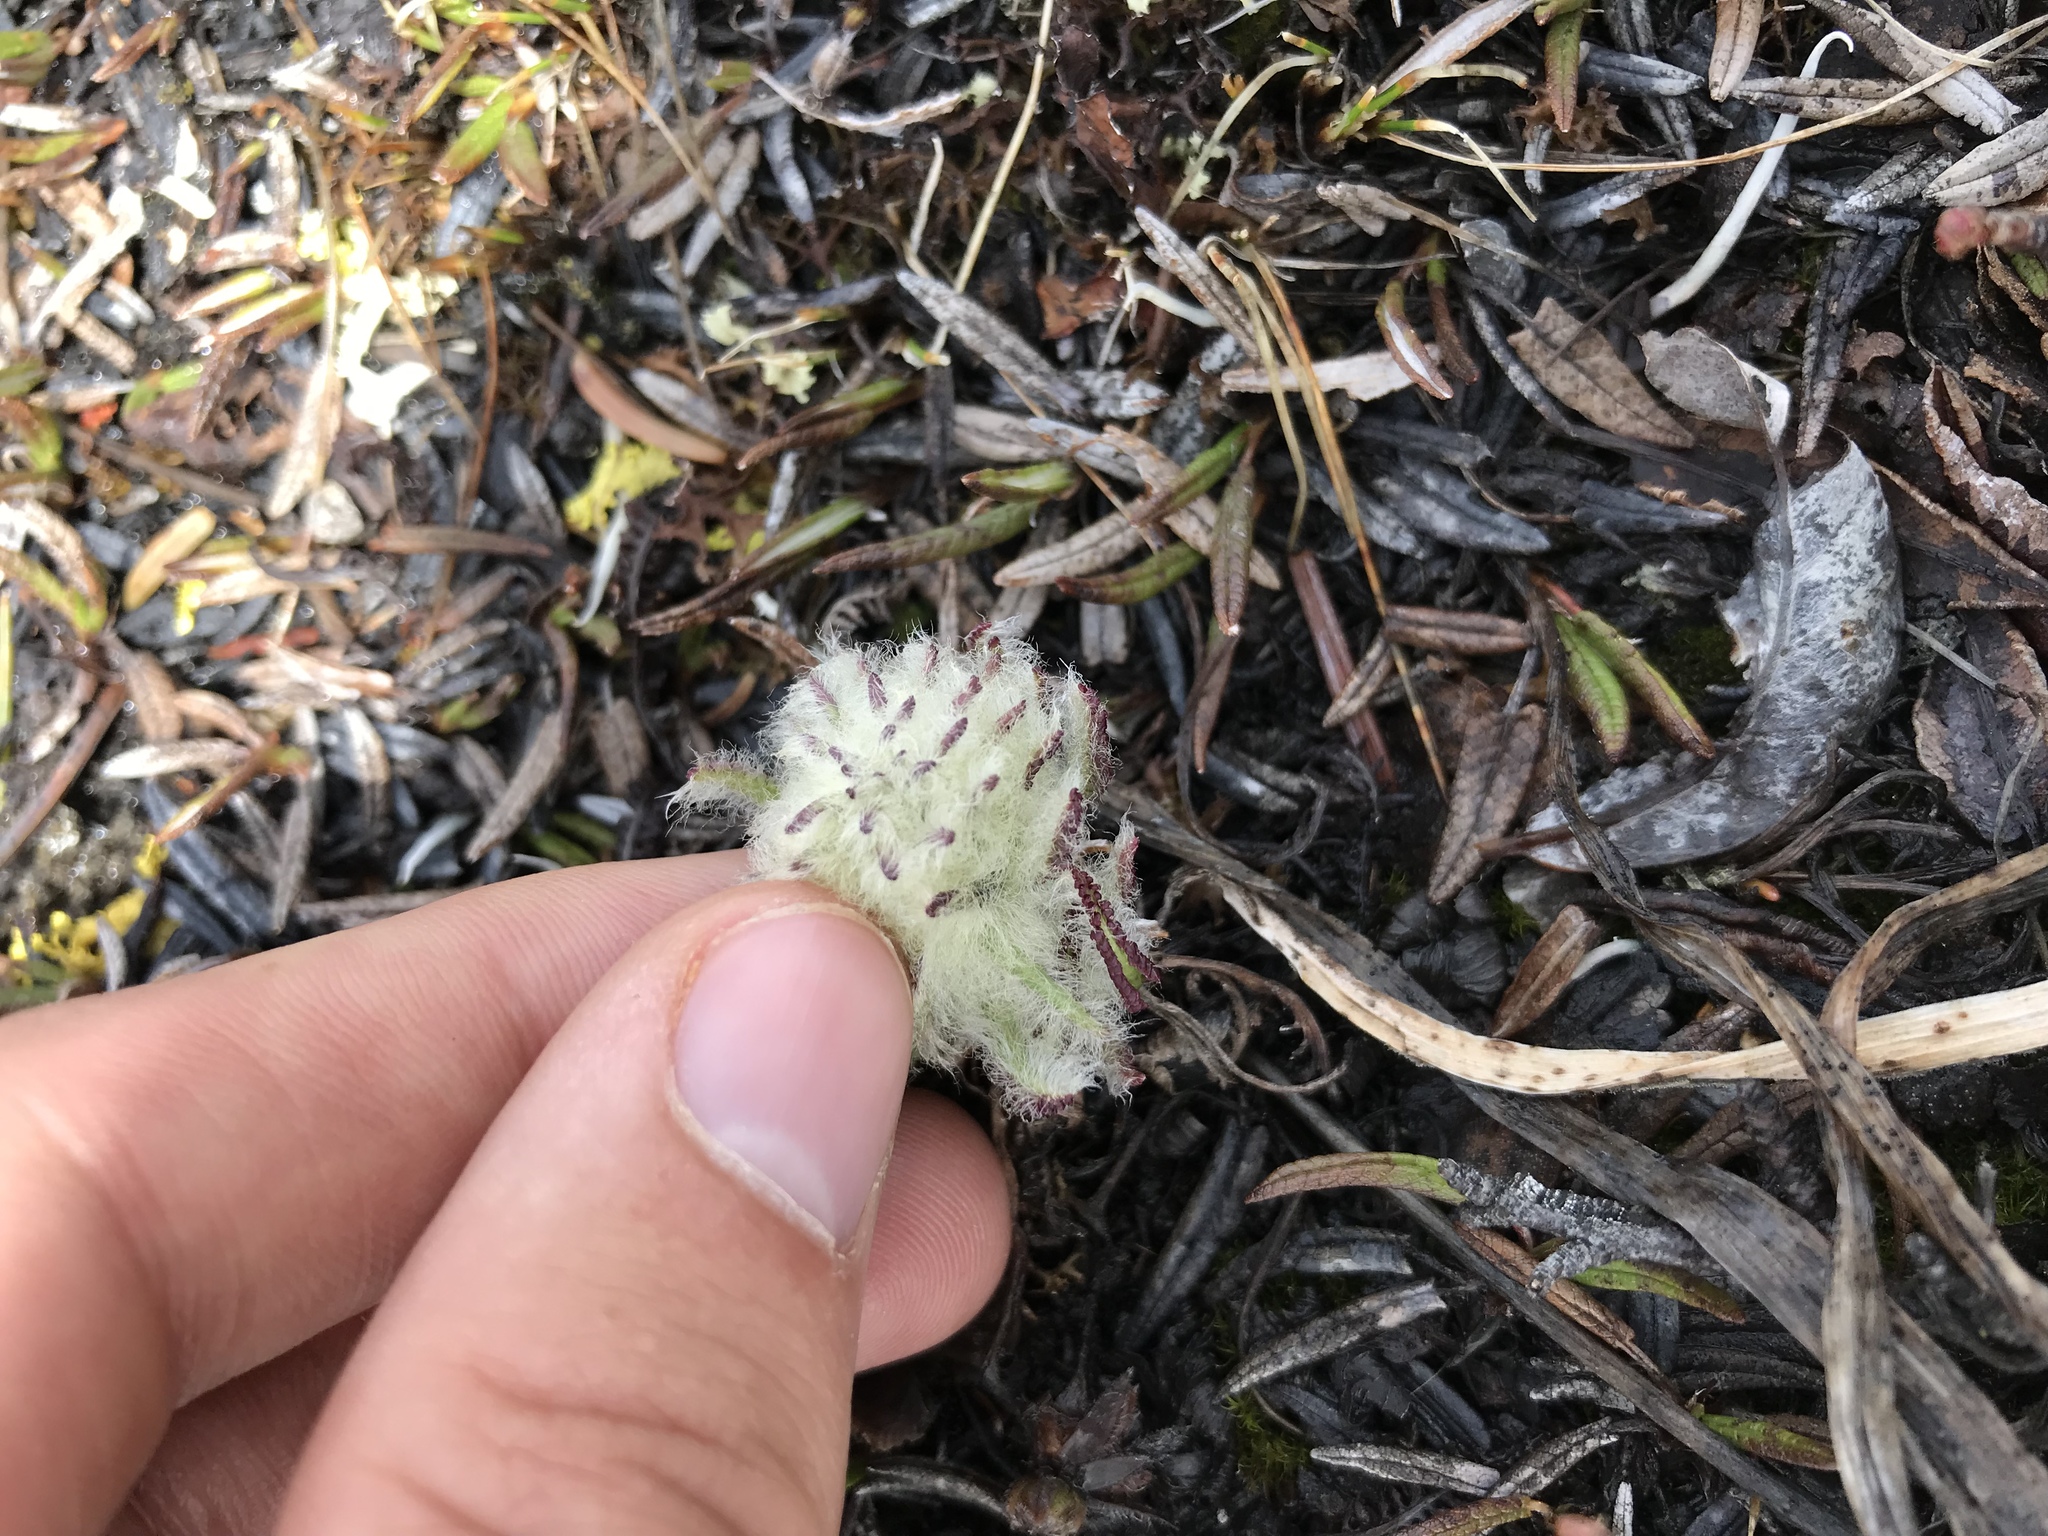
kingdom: Plantae
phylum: Tracheophyta
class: Magnoliopsida
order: Lamiales
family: Orobanchaceae
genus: Pedicularis
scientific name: Pedicularis lanata
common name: Woolly lousewort
